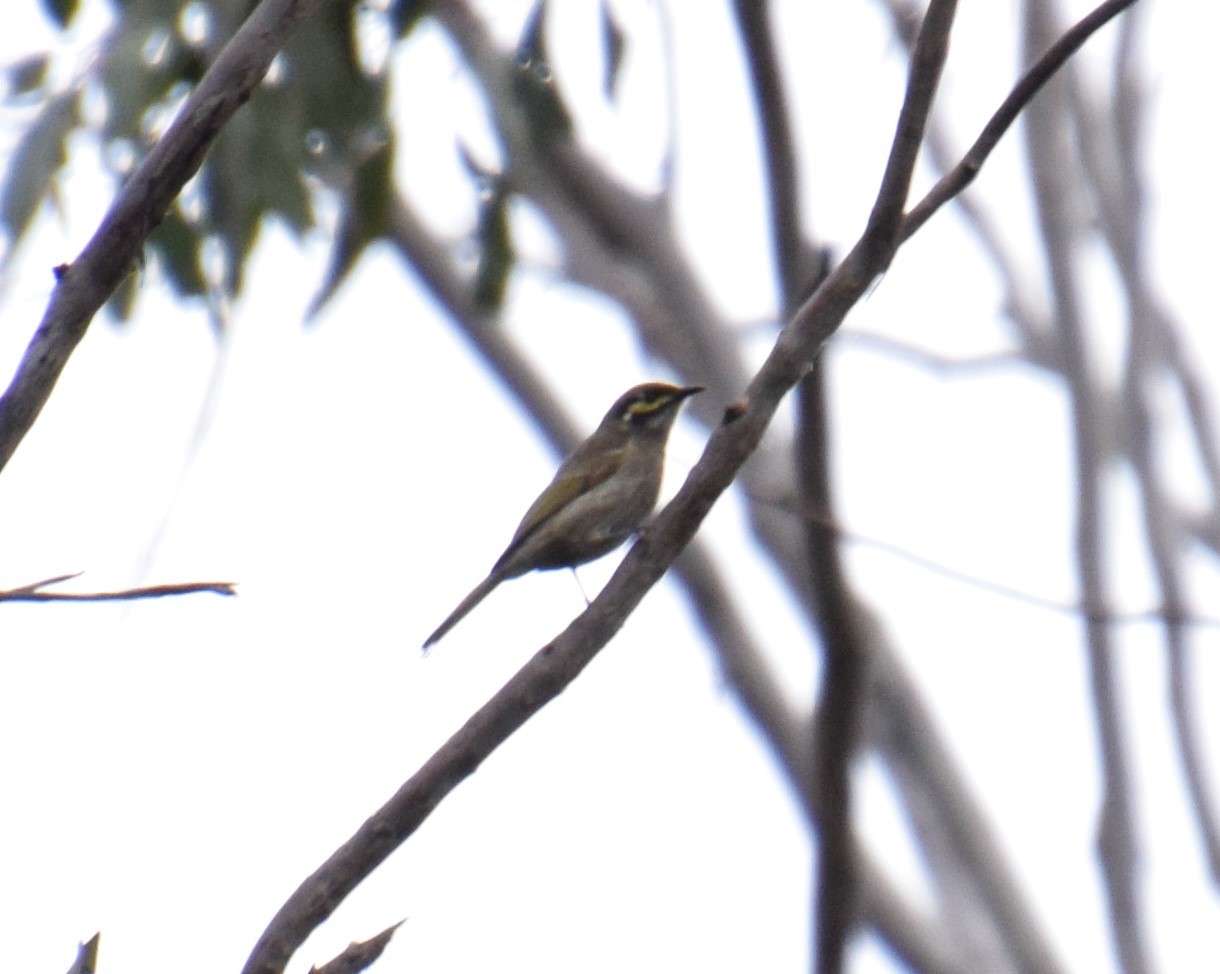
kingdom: Animalia
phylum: Chordata
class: Aves
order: Passeriformes
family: Meliphagidae
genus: Caligavis
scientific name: Caligavis chrysops
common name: Yellow-faced honeyeater
